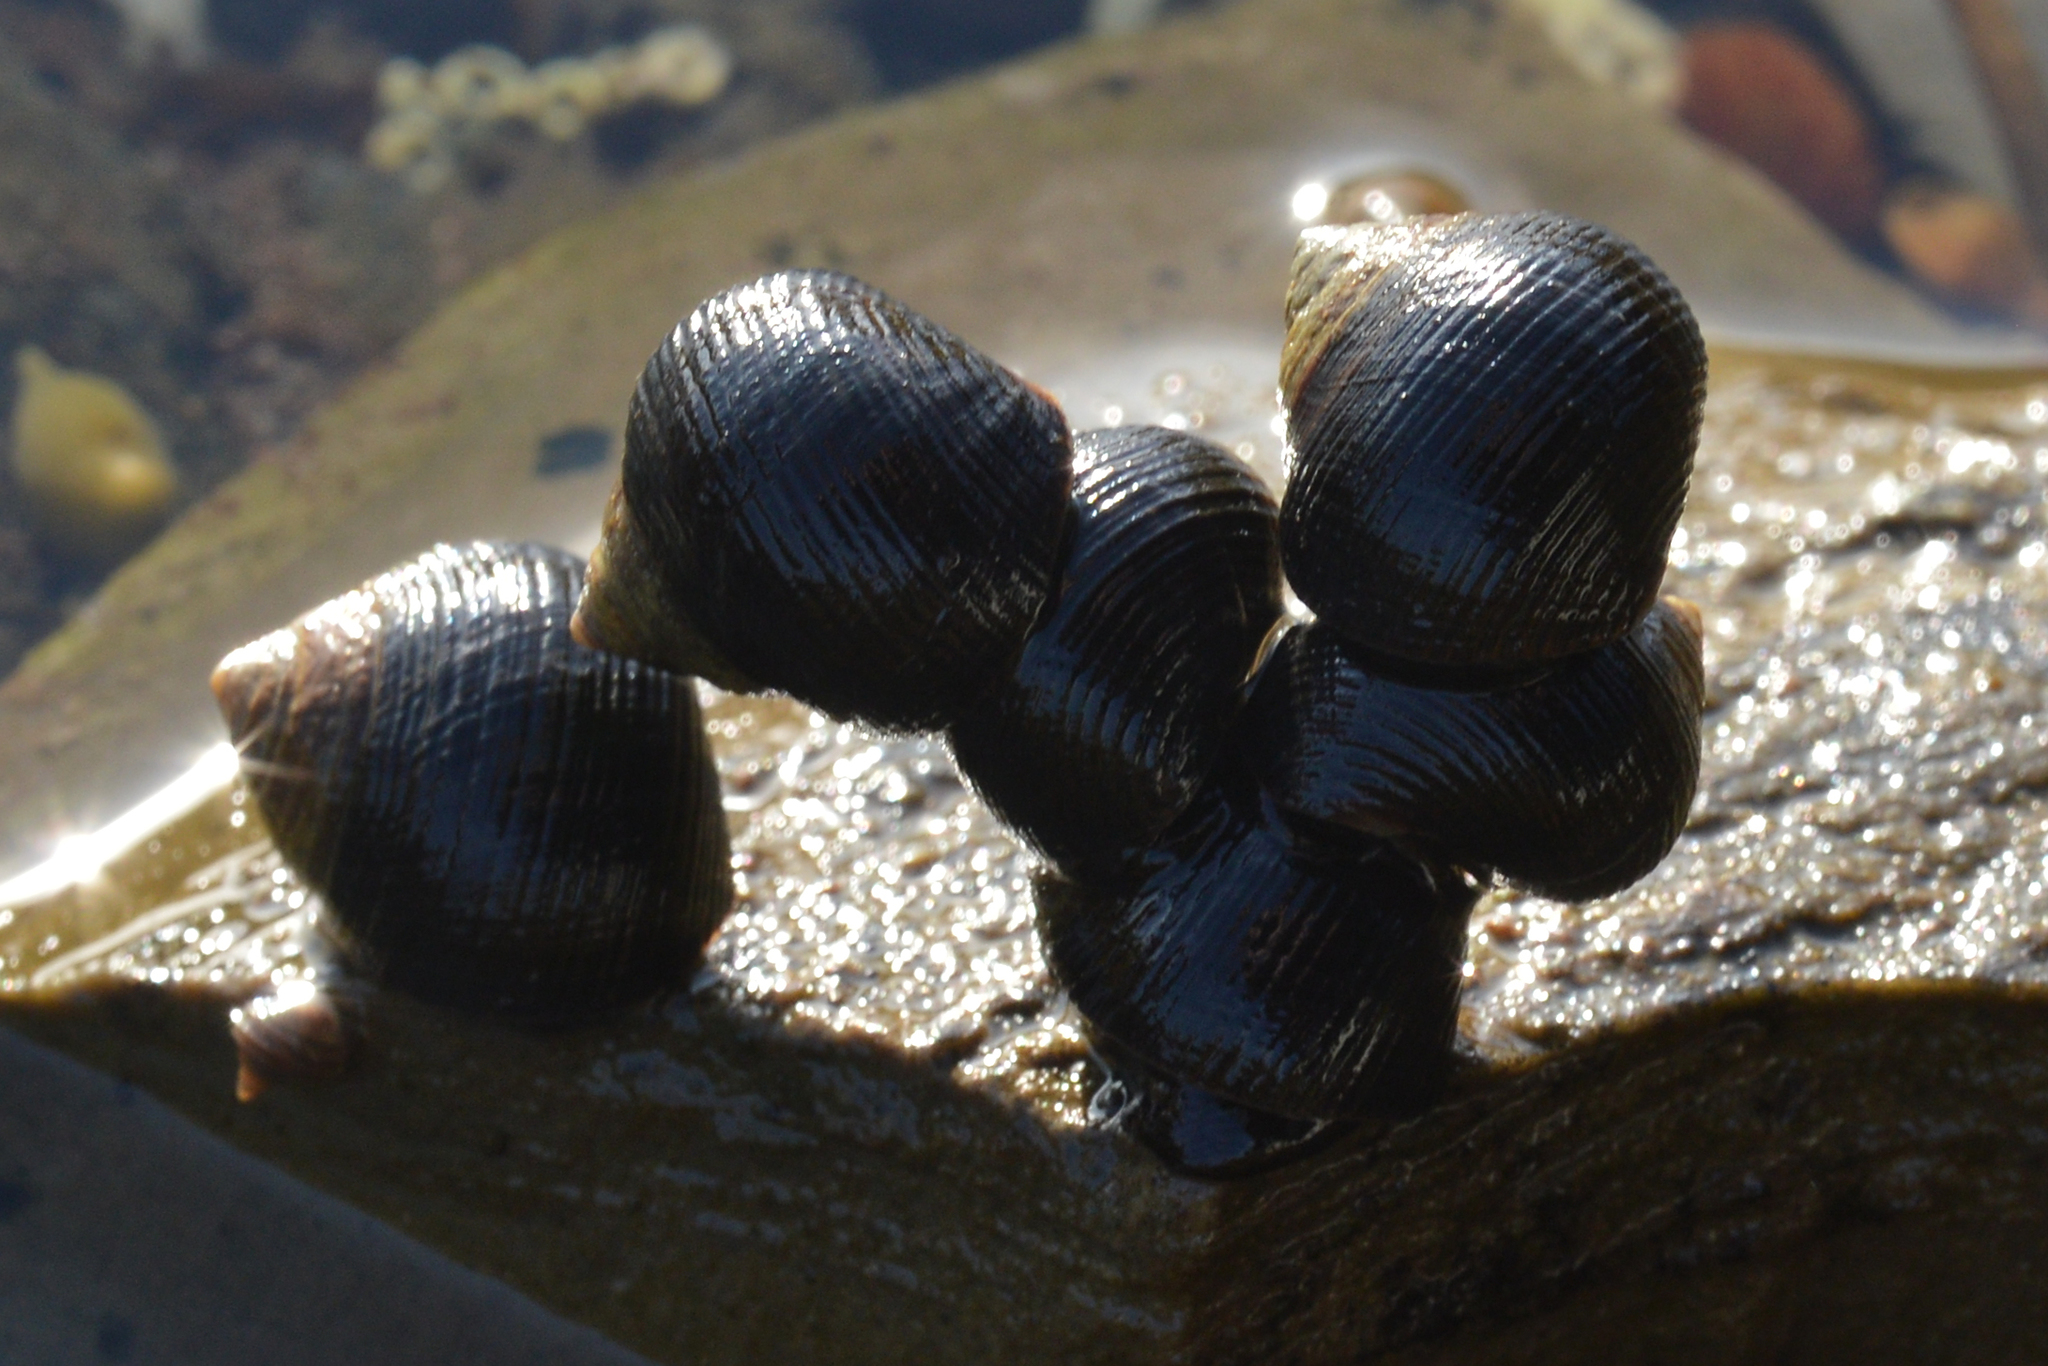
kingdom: Animalia
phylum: Mollusca
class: Gastropoda
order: Littorinimorpha
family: Littorinidae
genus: Littorina
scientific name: Littorina littorea
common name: Common periwinkle
